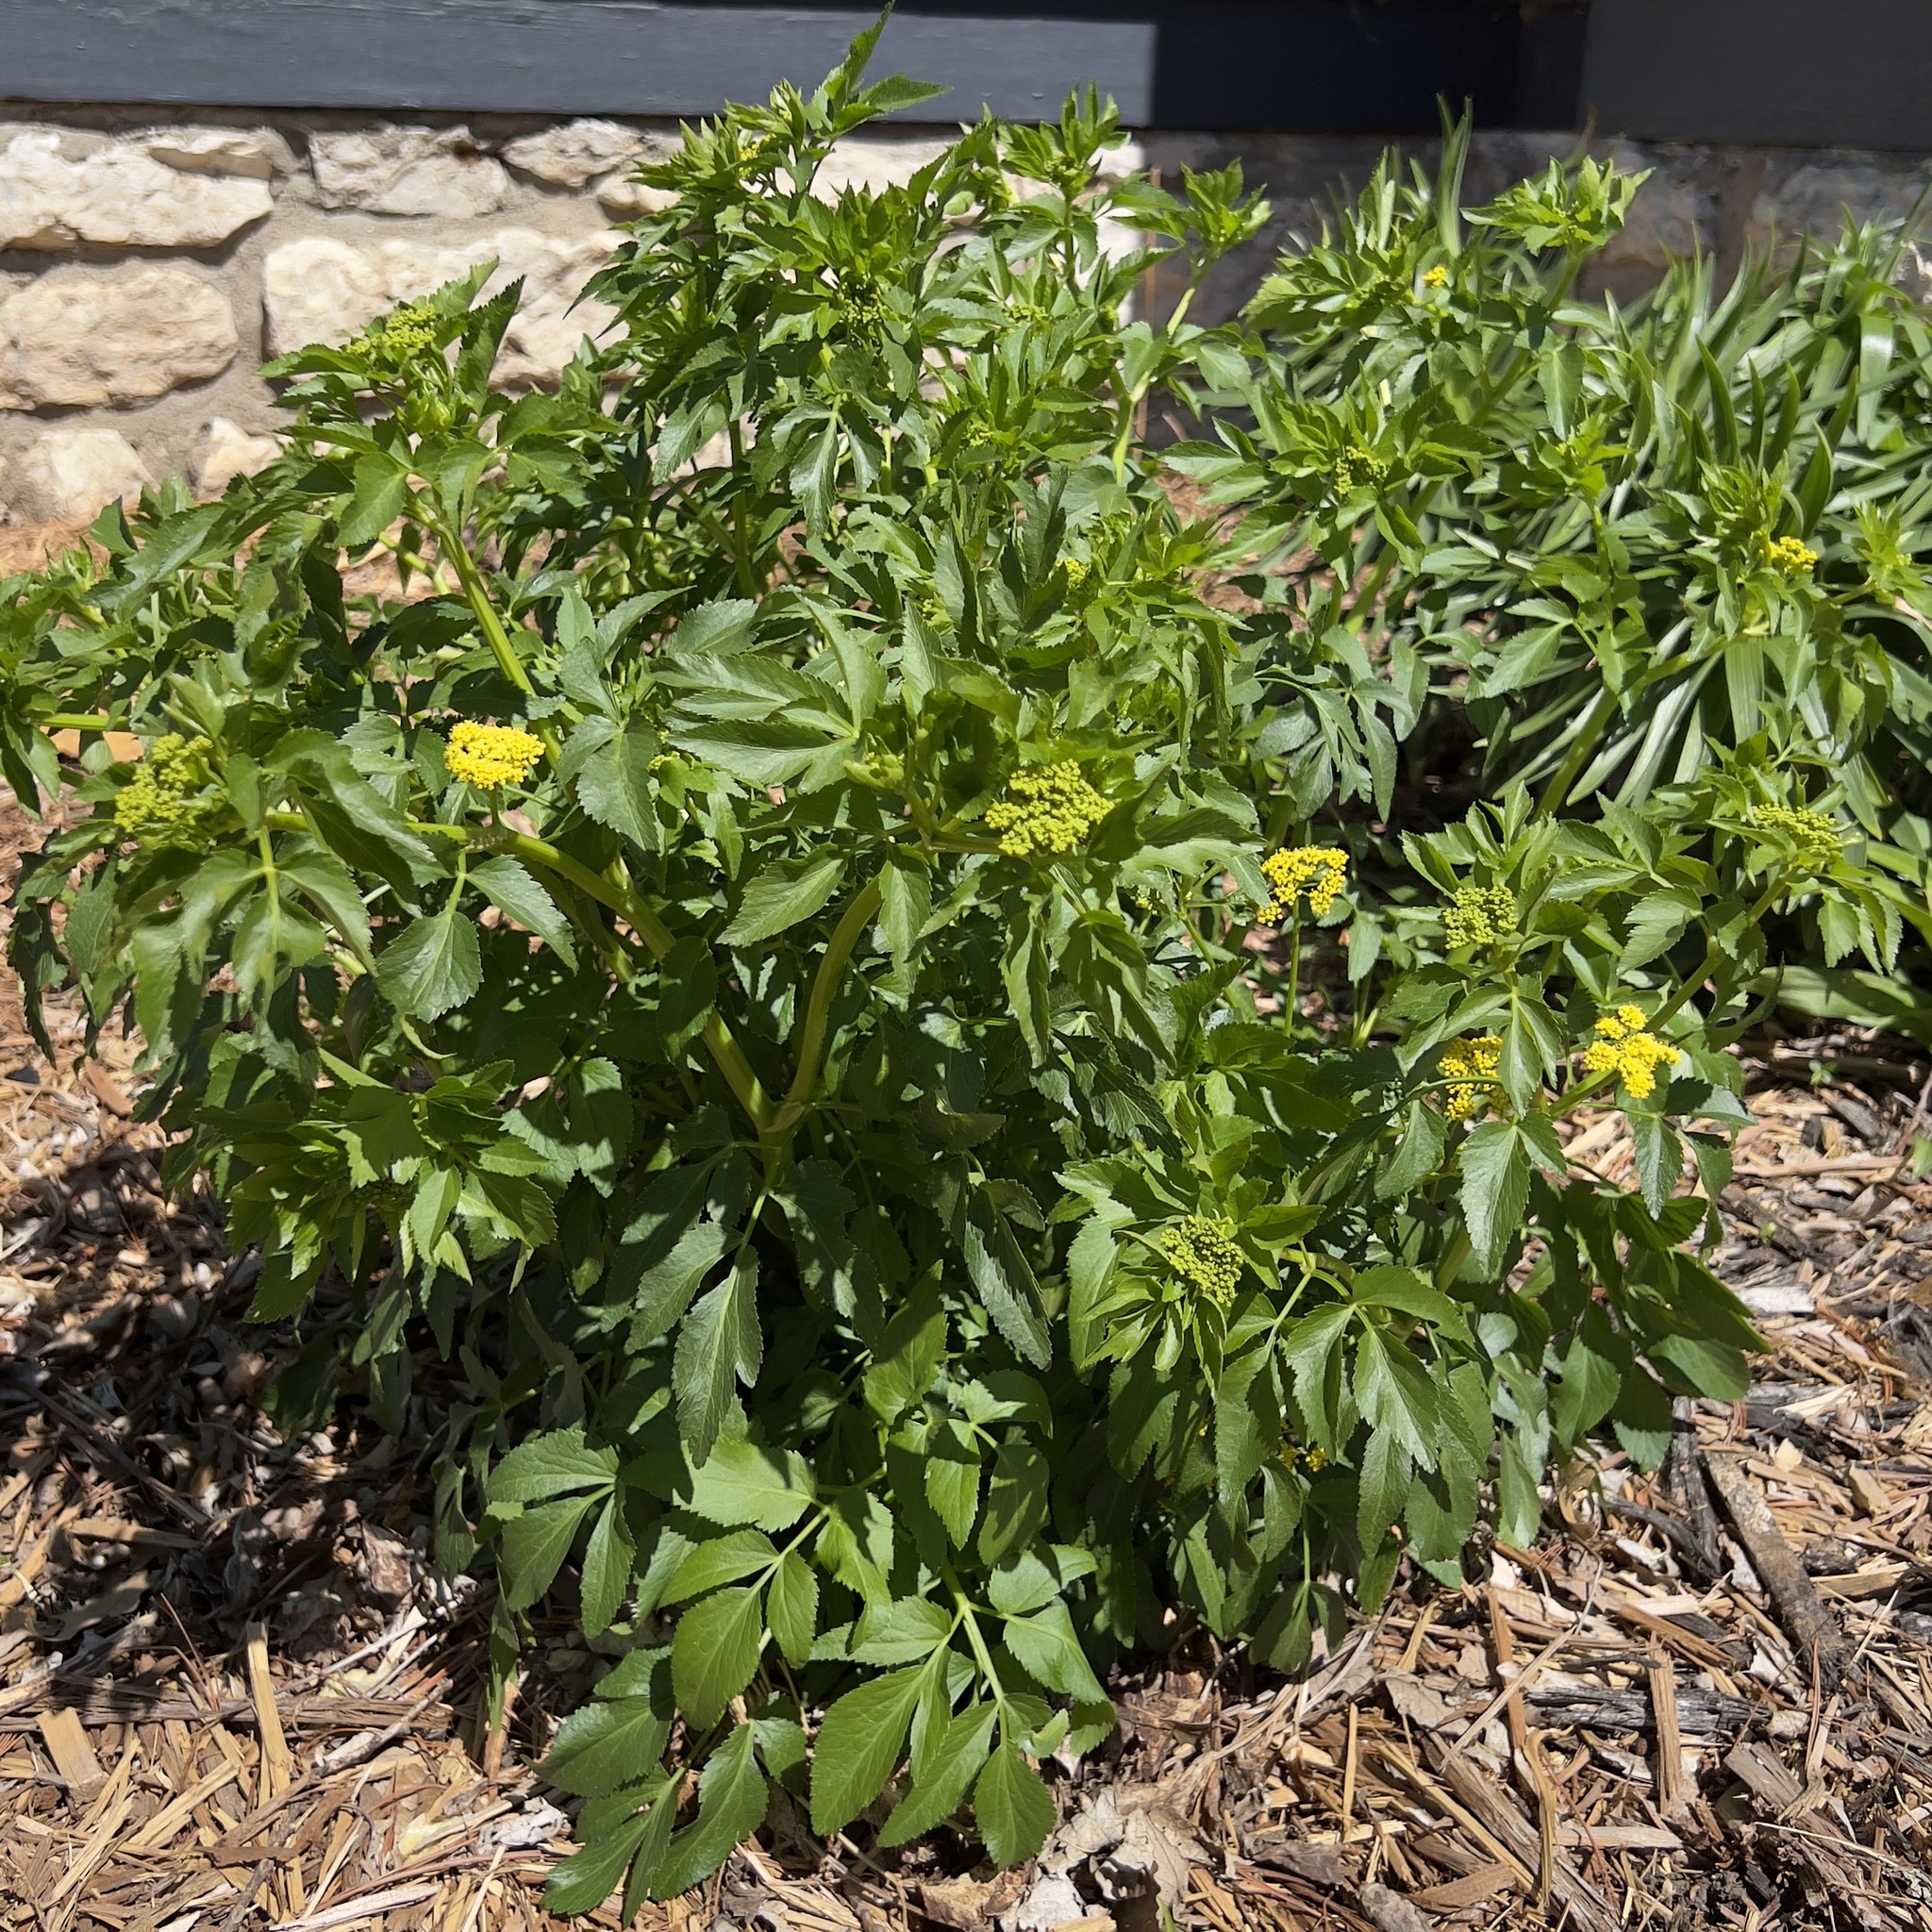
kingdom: Plantae
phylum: Tracheophyta
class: Magnoliopsida
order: Apiales
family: Apiaceae
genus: Zizia
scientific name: Zizia aurea
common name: Golden alexanders
